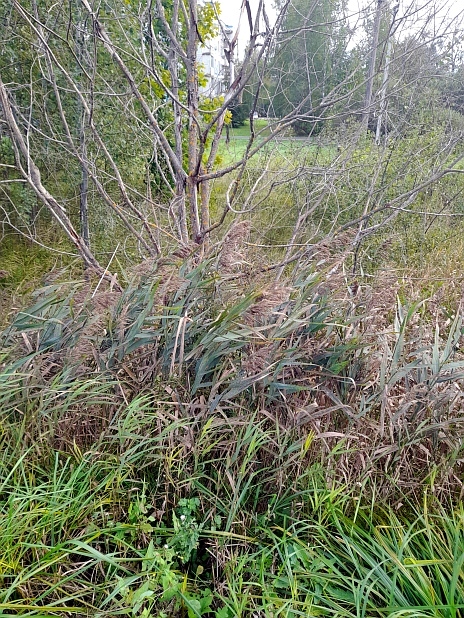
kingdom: Plantae
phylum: Tracheophyta
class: Liliopsida
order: Poales
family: Poaceae
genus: Phragmites
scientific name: Phragmites australis
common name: Common reed
